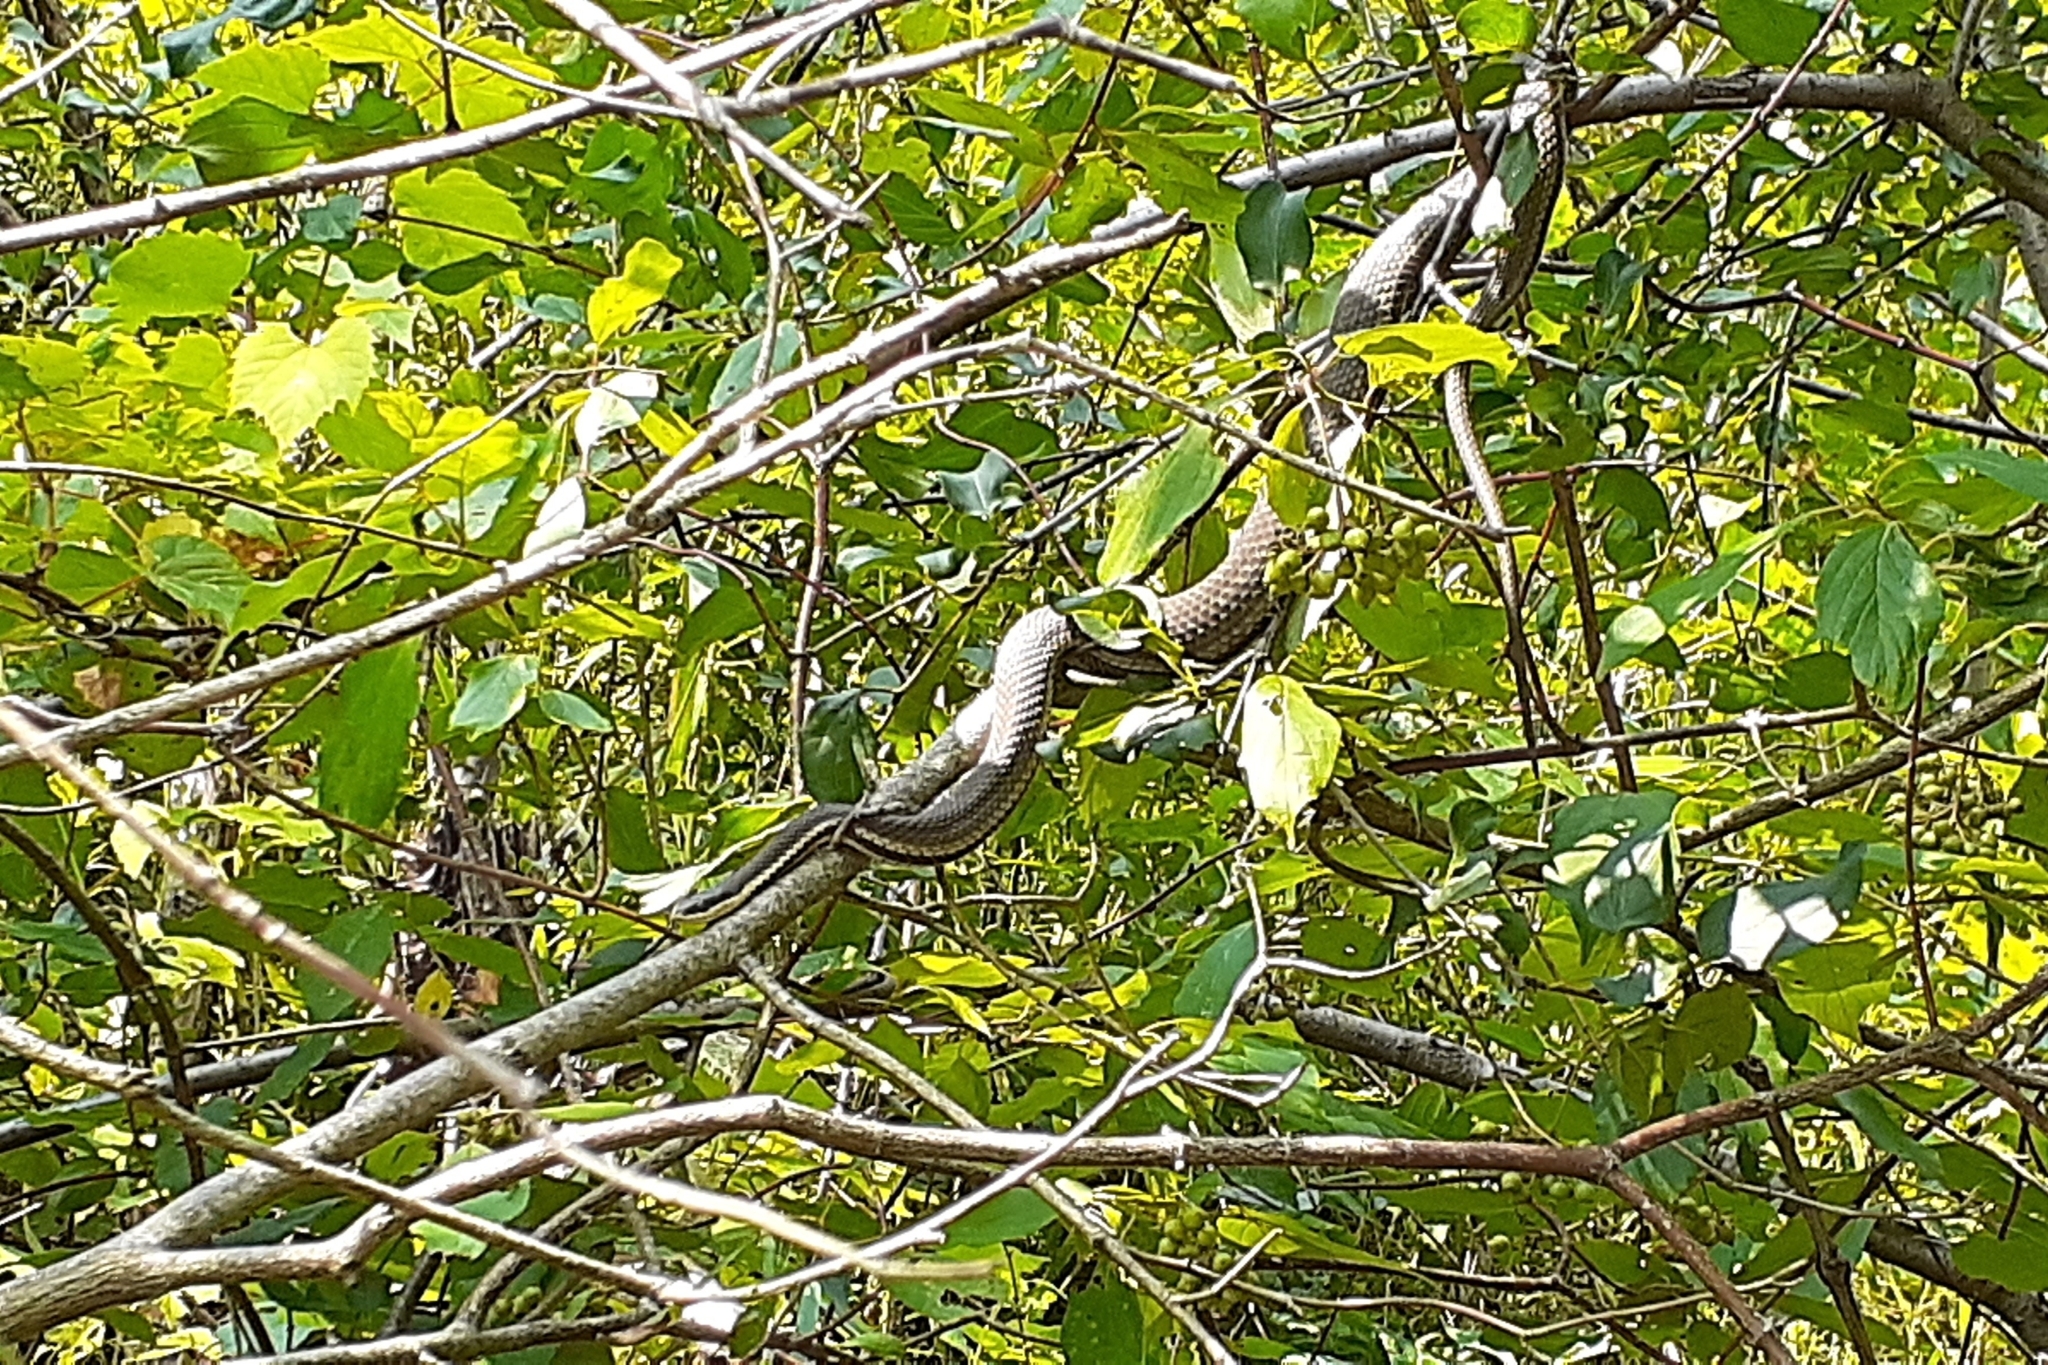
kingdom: Animalia
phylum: Chordata
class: Squamata
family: Colubridae
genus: Regina
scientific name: Regina septemvittata
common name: Queen snake
